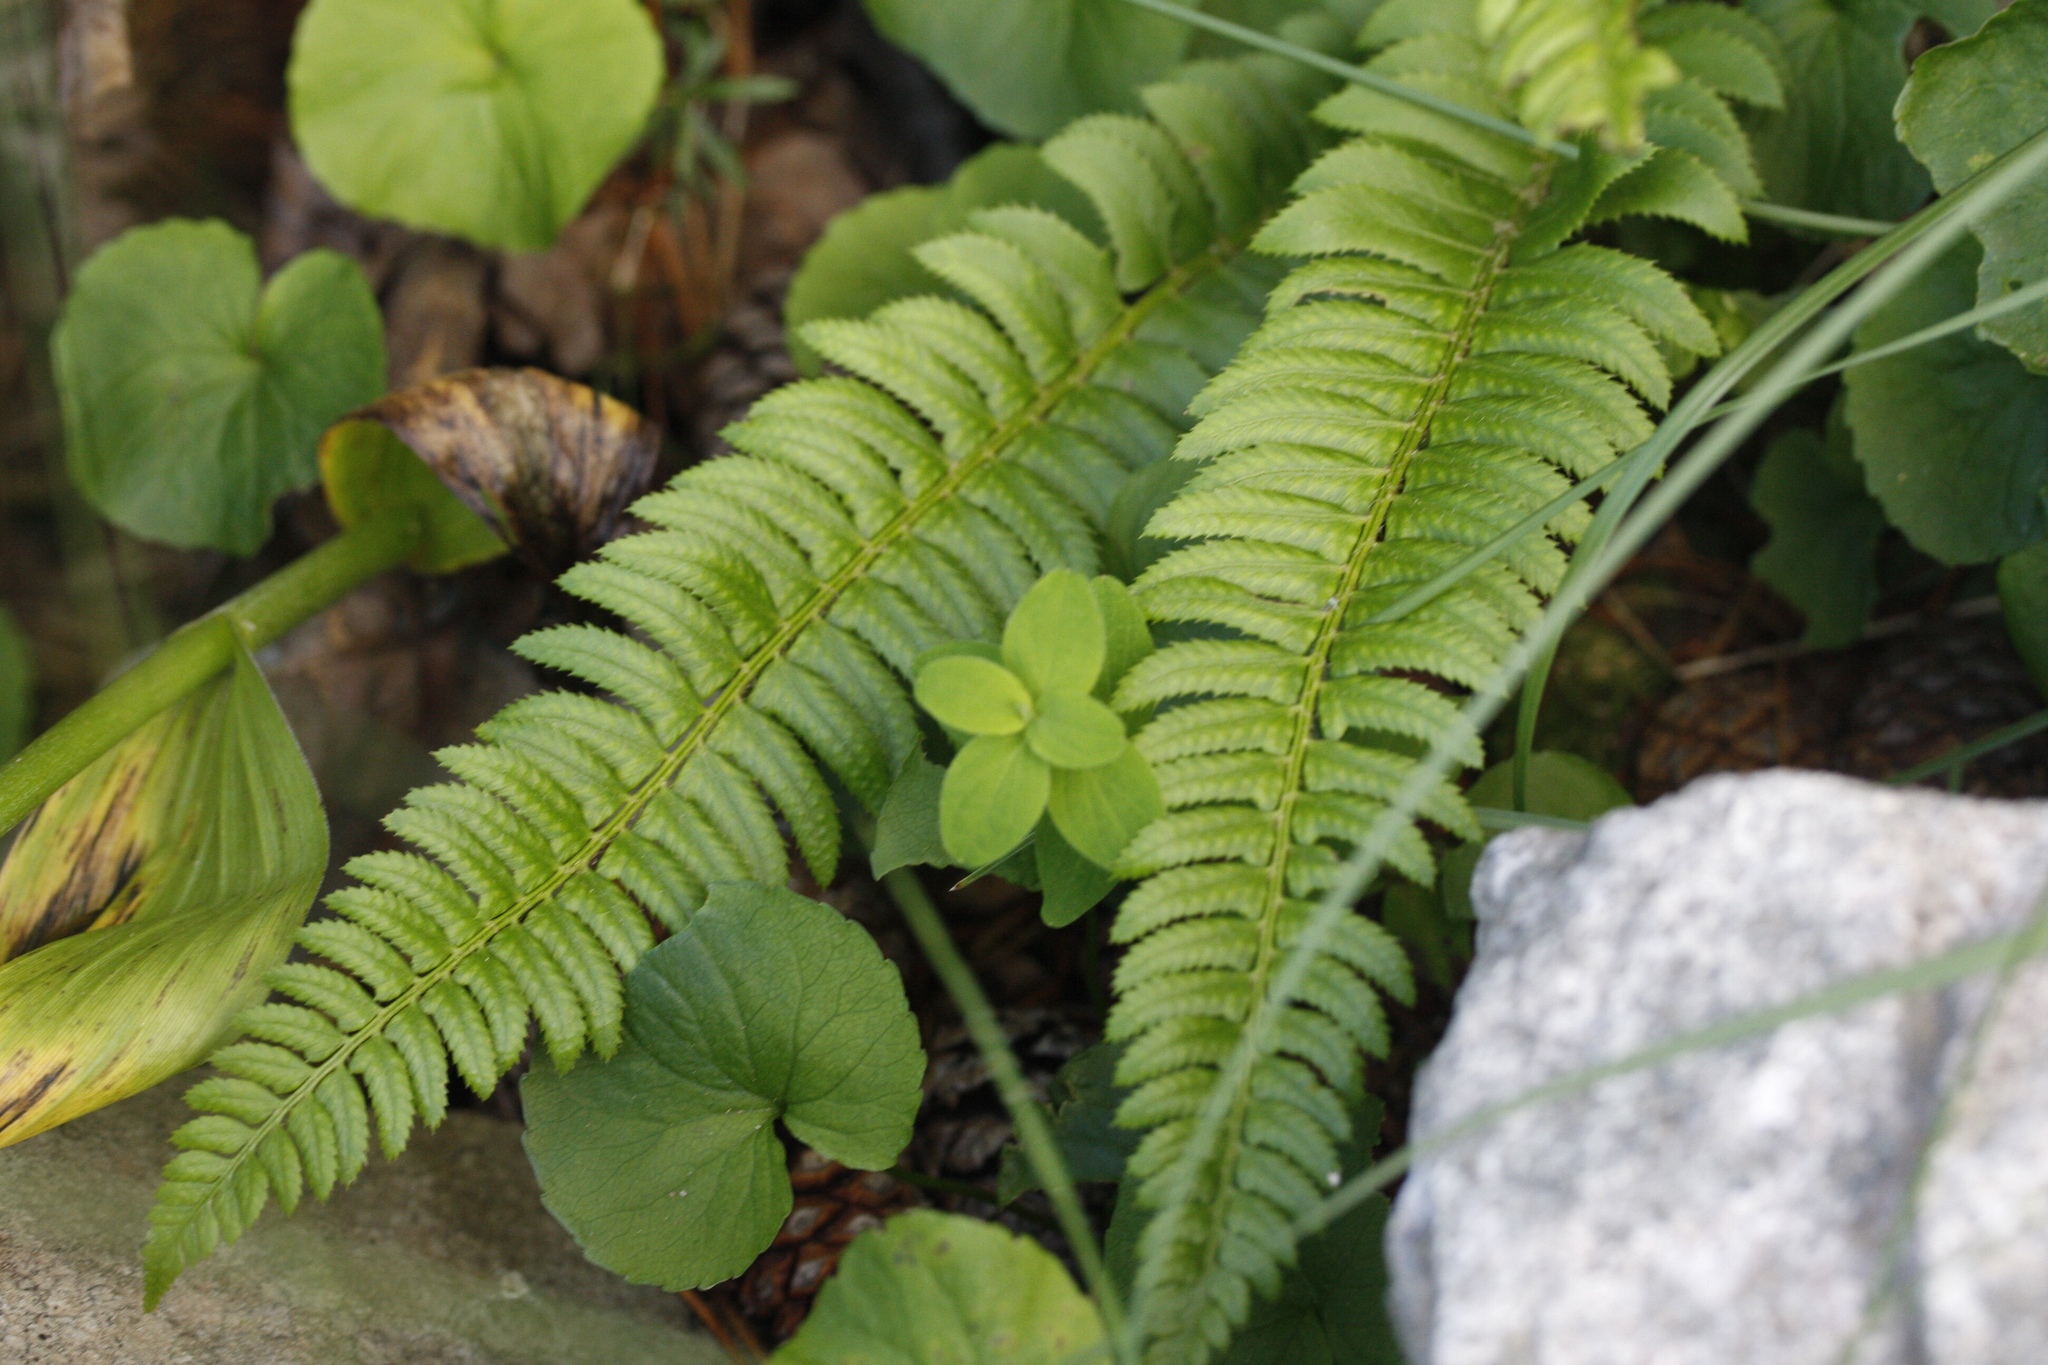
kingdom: Plantae
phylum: Tracheophyta
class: Polypodiopsida
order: Polypodiales
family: Dryopteridaceae
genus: Polystichum
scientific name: Polystichum lonchitis
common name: Holly fern
